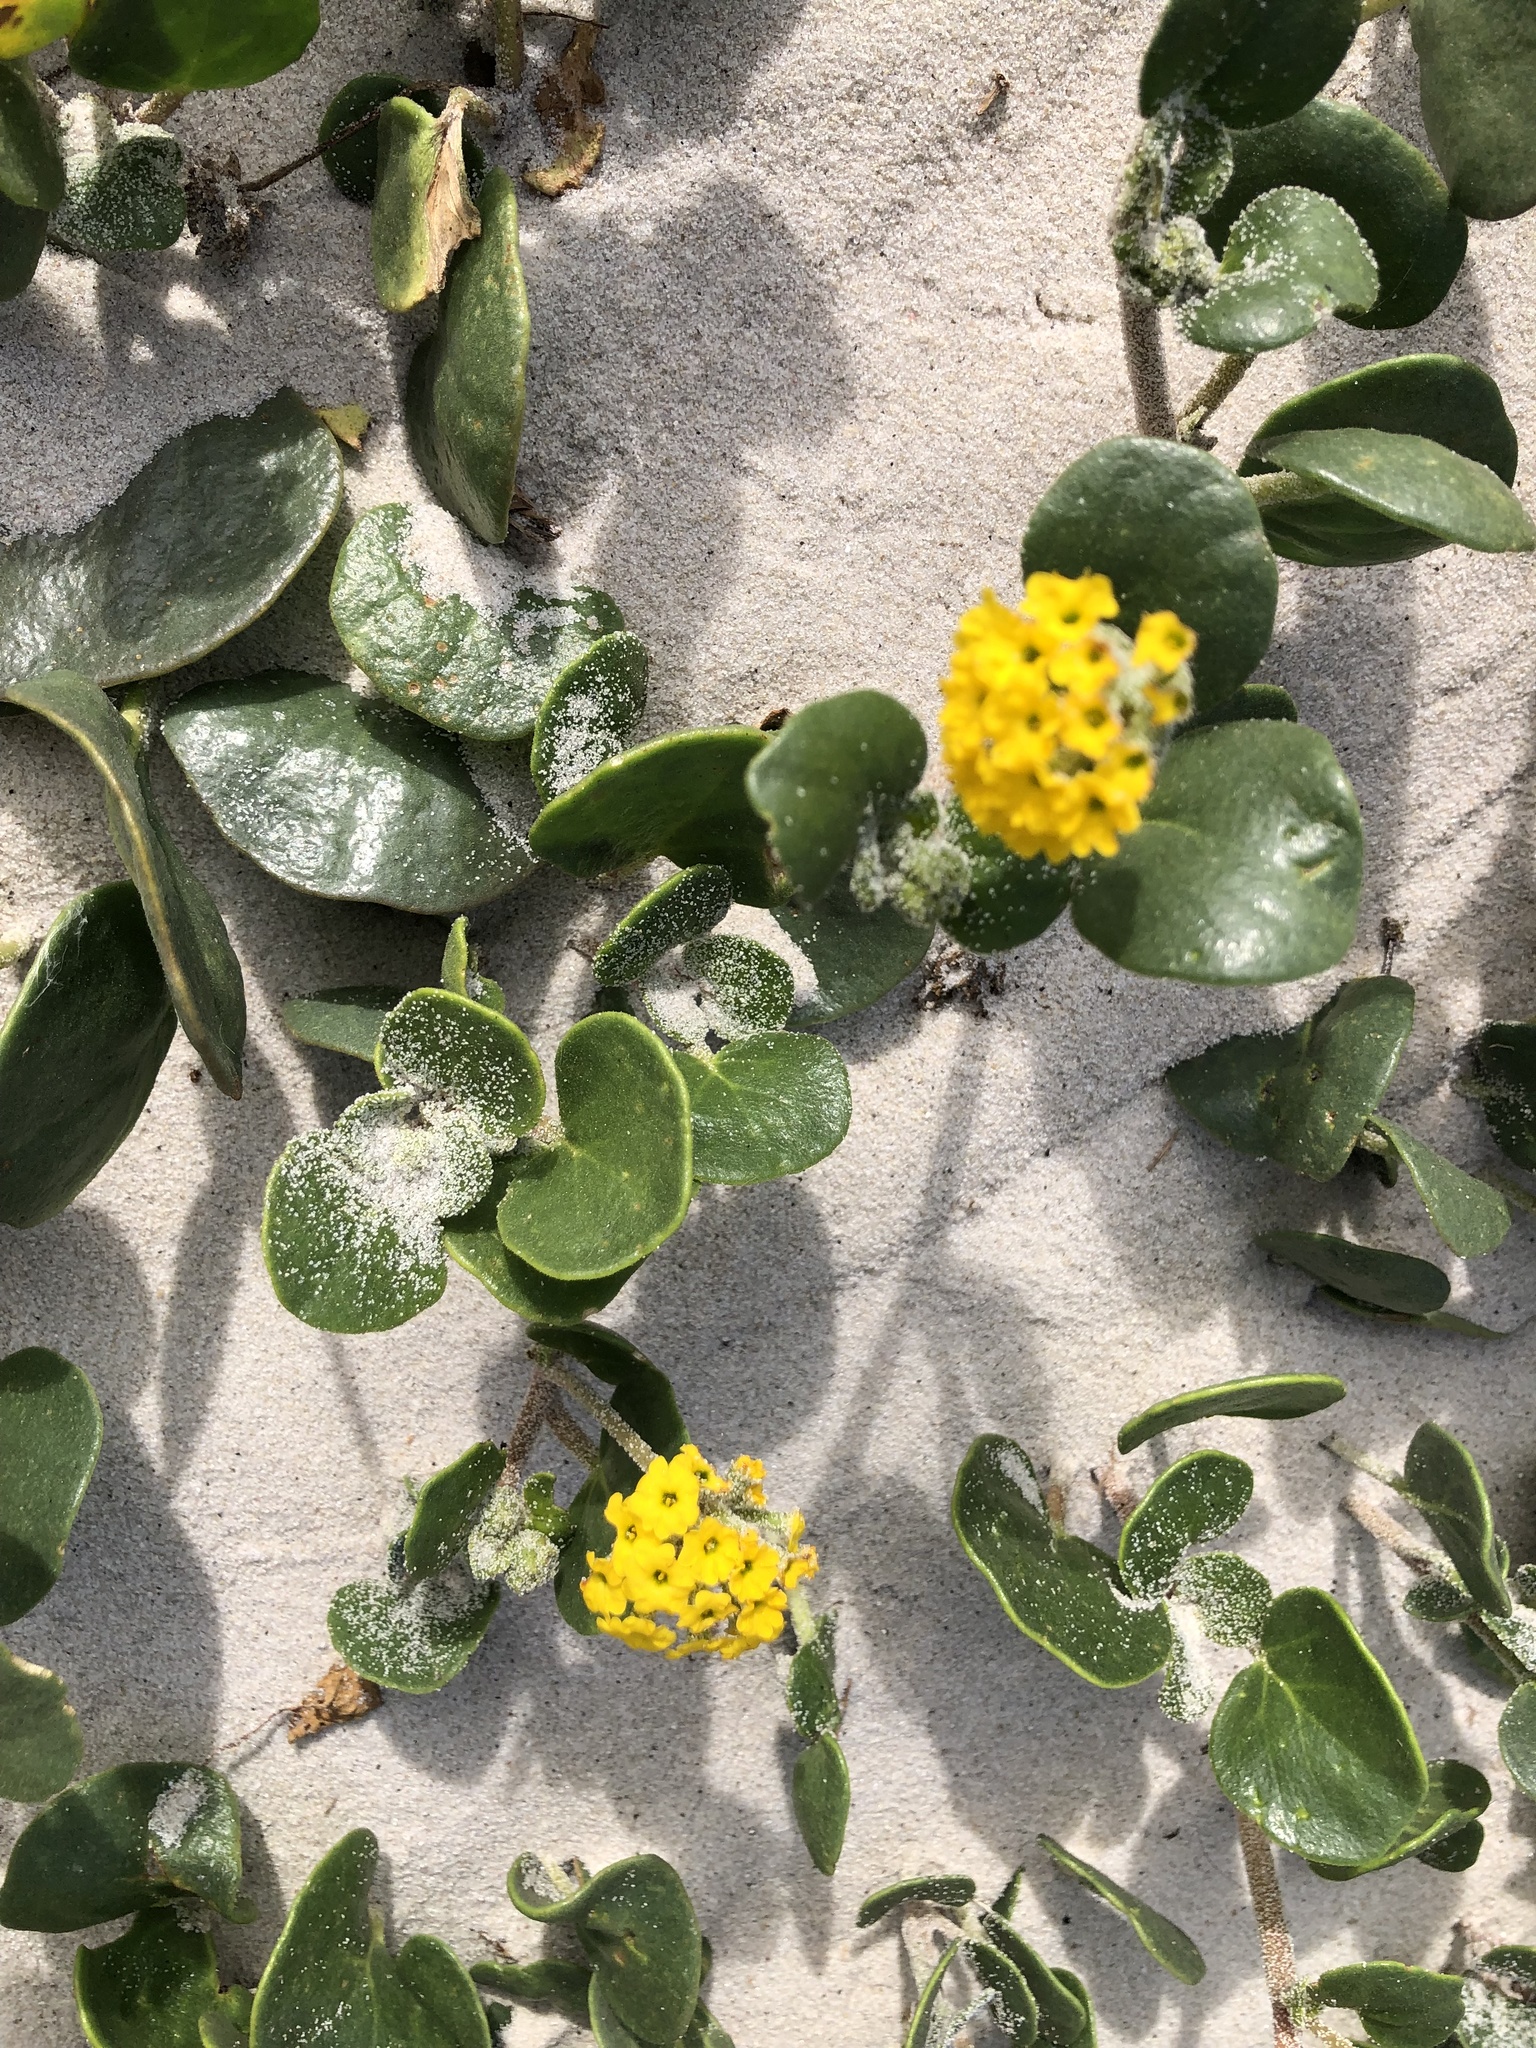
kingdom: Plantae
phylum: Tracheophyta
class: Magnoliopsida
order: Caryophyllales
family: Nyctaginaceae
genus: Abronia
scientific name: Abronia latifolia
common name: Yellow sand-verbena
